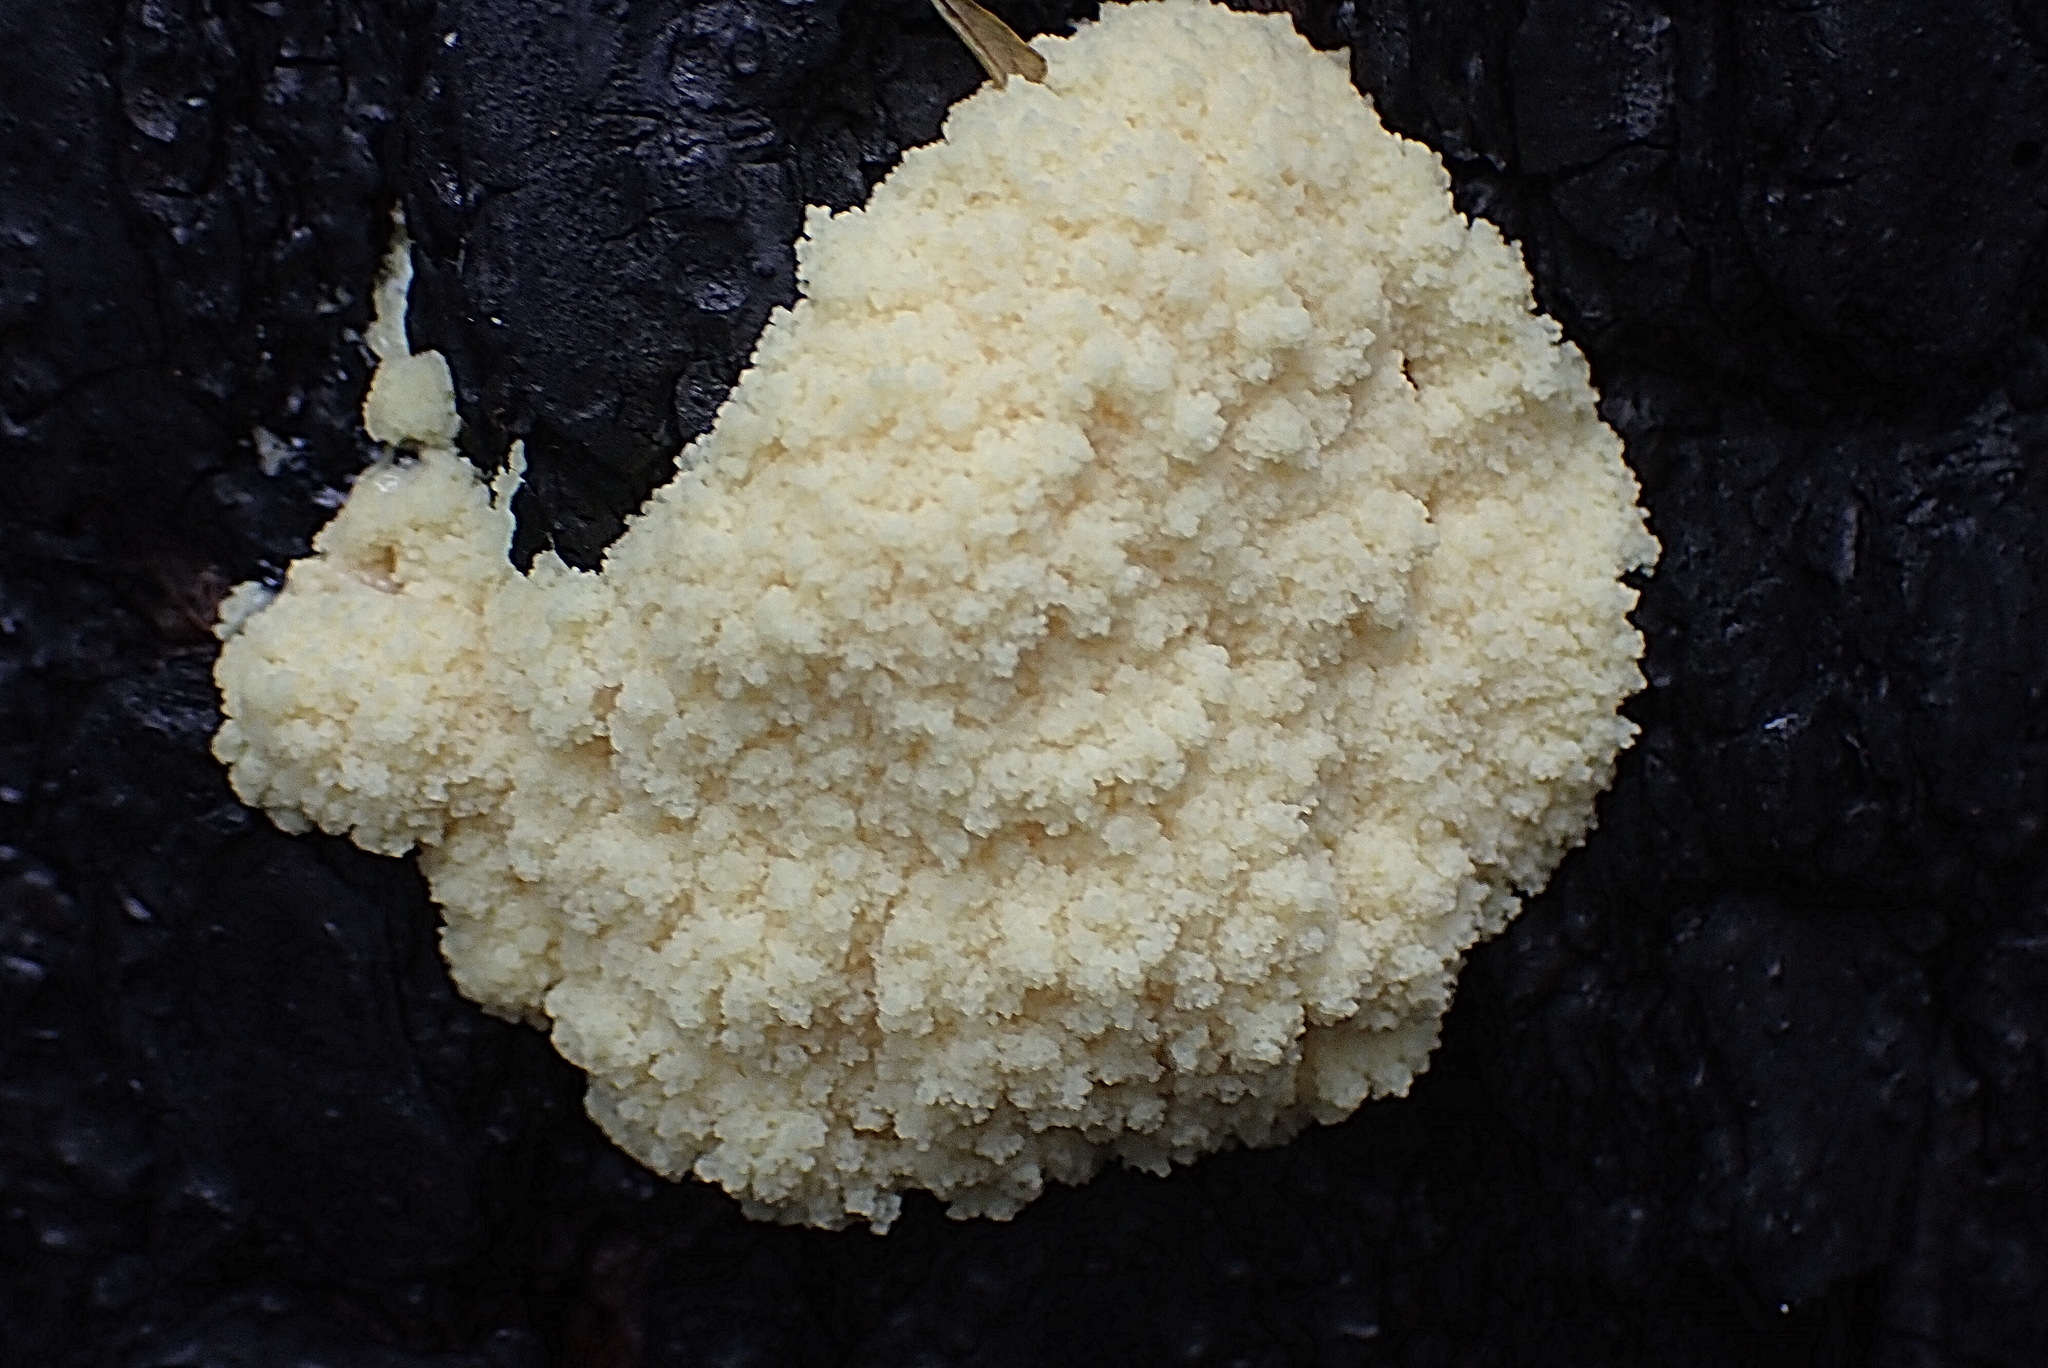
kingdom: Protozoa
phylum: Mycetozoa
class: Myxomycetes
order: Physarales
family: Physaraceae
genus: Fuligo
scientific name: Fuligo septica
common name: Dog vomit slime mold
